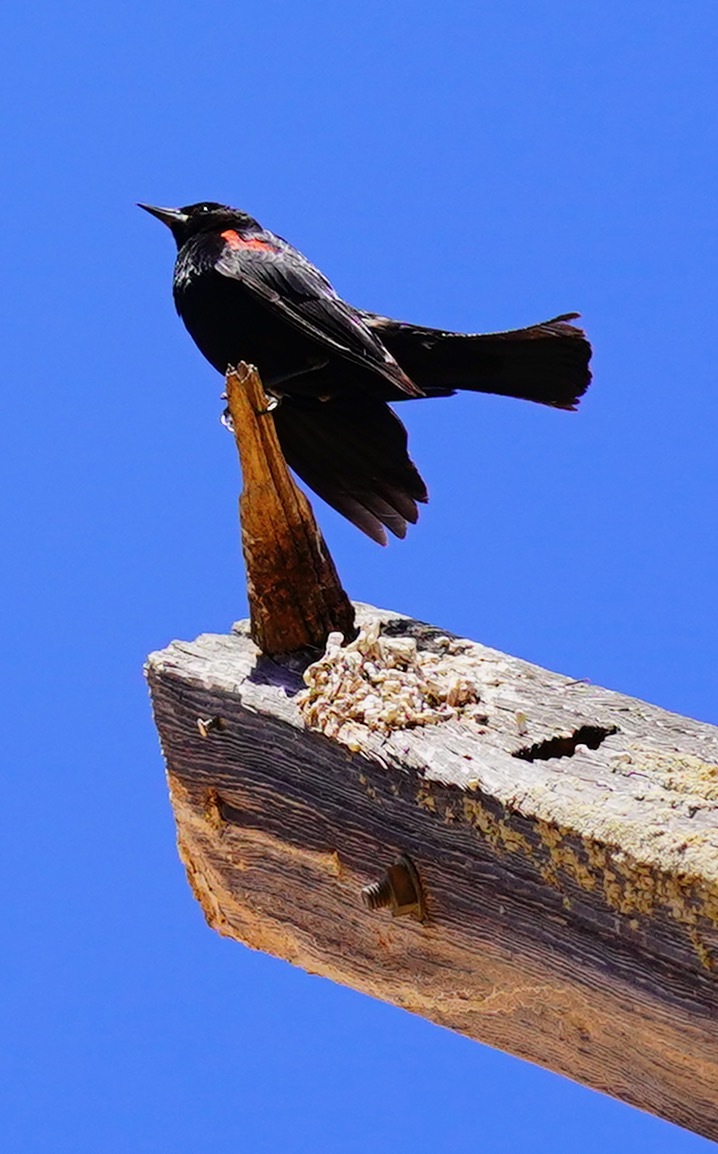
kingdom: Animalia
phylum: Chordata
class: Aves
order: Passeriformes
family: Icteridae
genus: Agelaius
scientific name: Agelaius phoeniceus
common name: Red-winged blackbird
